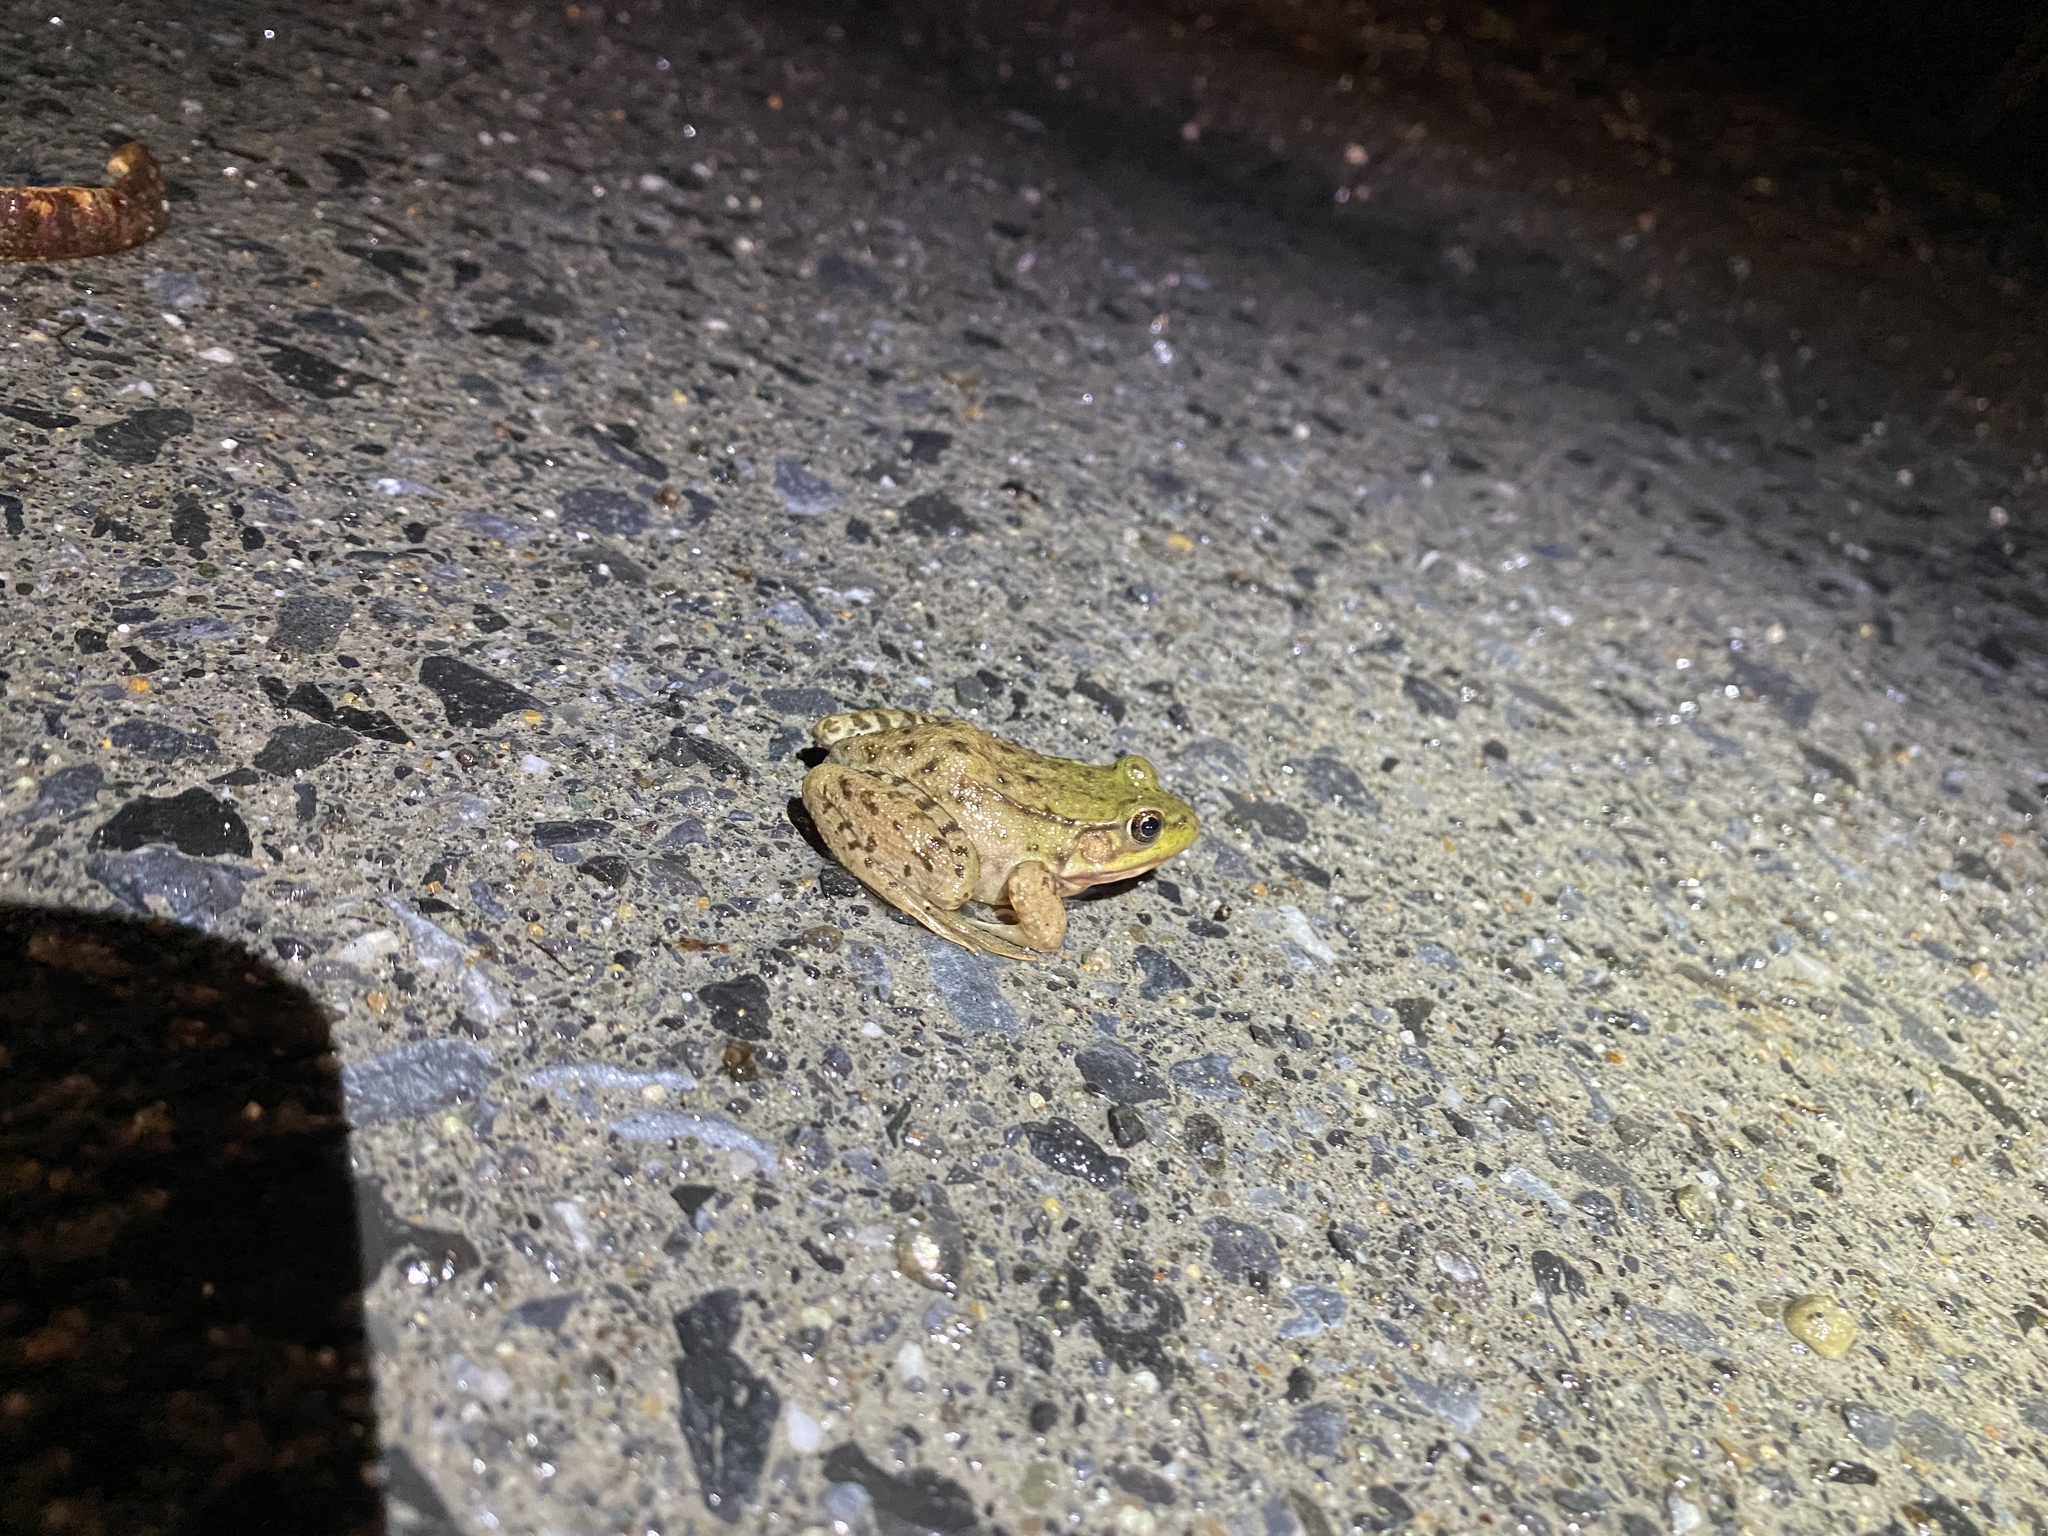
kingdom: Animalia
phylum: Chordata
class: Amphibia
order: Anura
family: Ranidae
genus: Lithobates
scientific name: Lithobates clamitans
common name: Green frog
